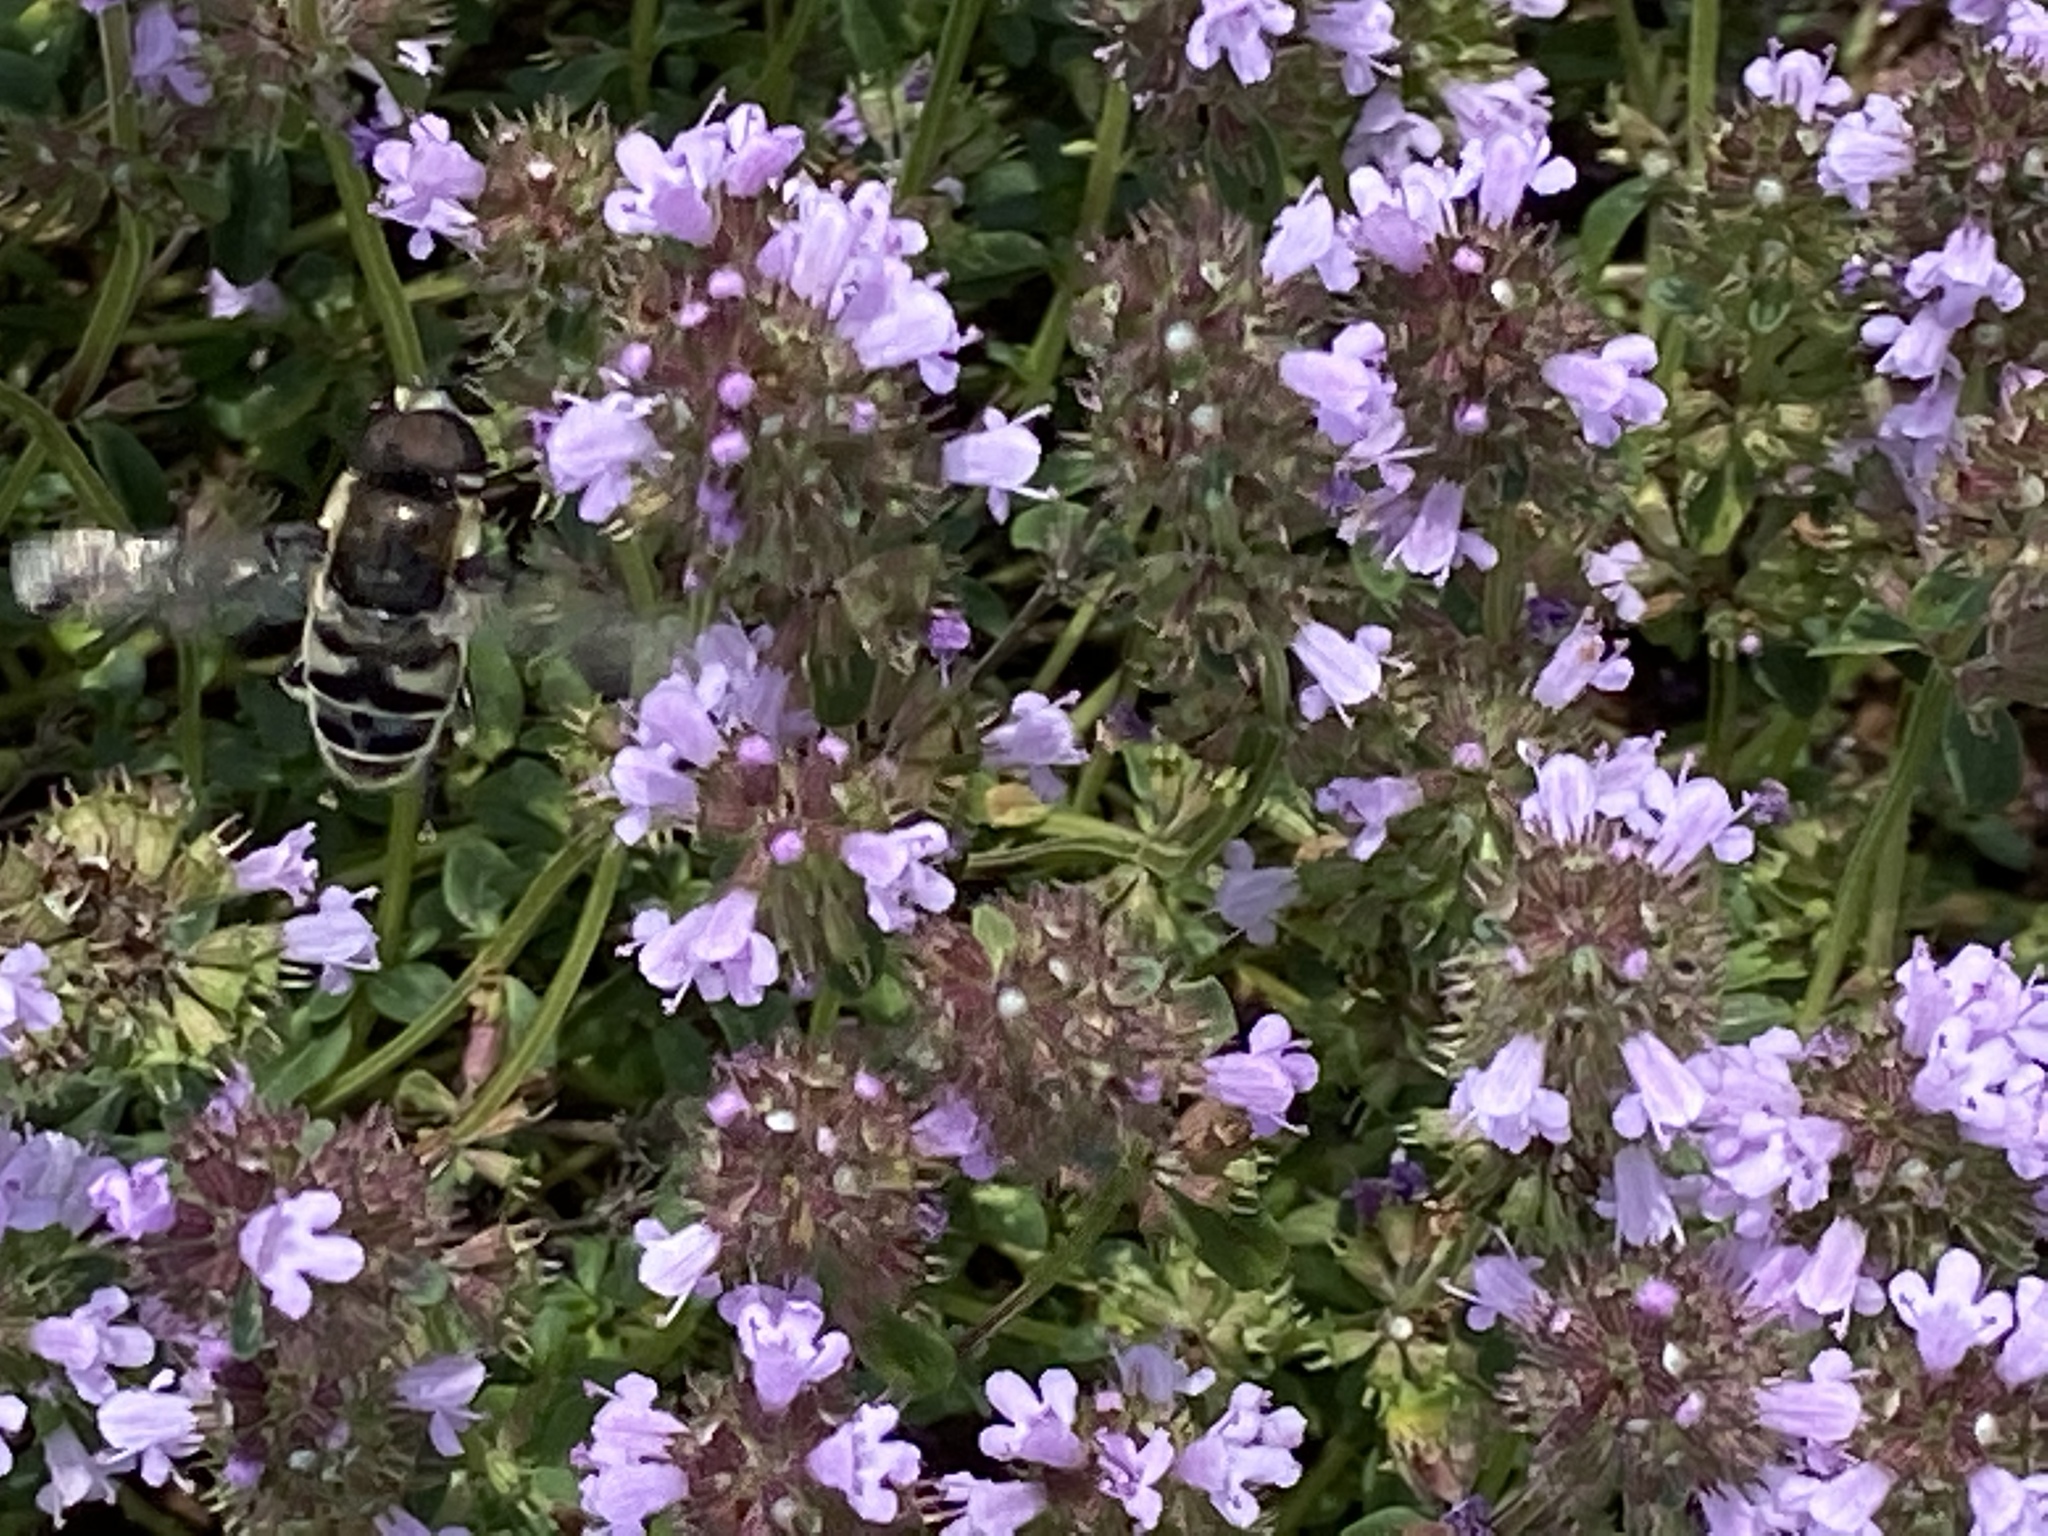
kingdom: Animalia
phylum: Arthropoda
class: Insecta
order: Diptera
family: Syrphidae
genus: Eristalis
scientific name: Eristalis dimidiata
